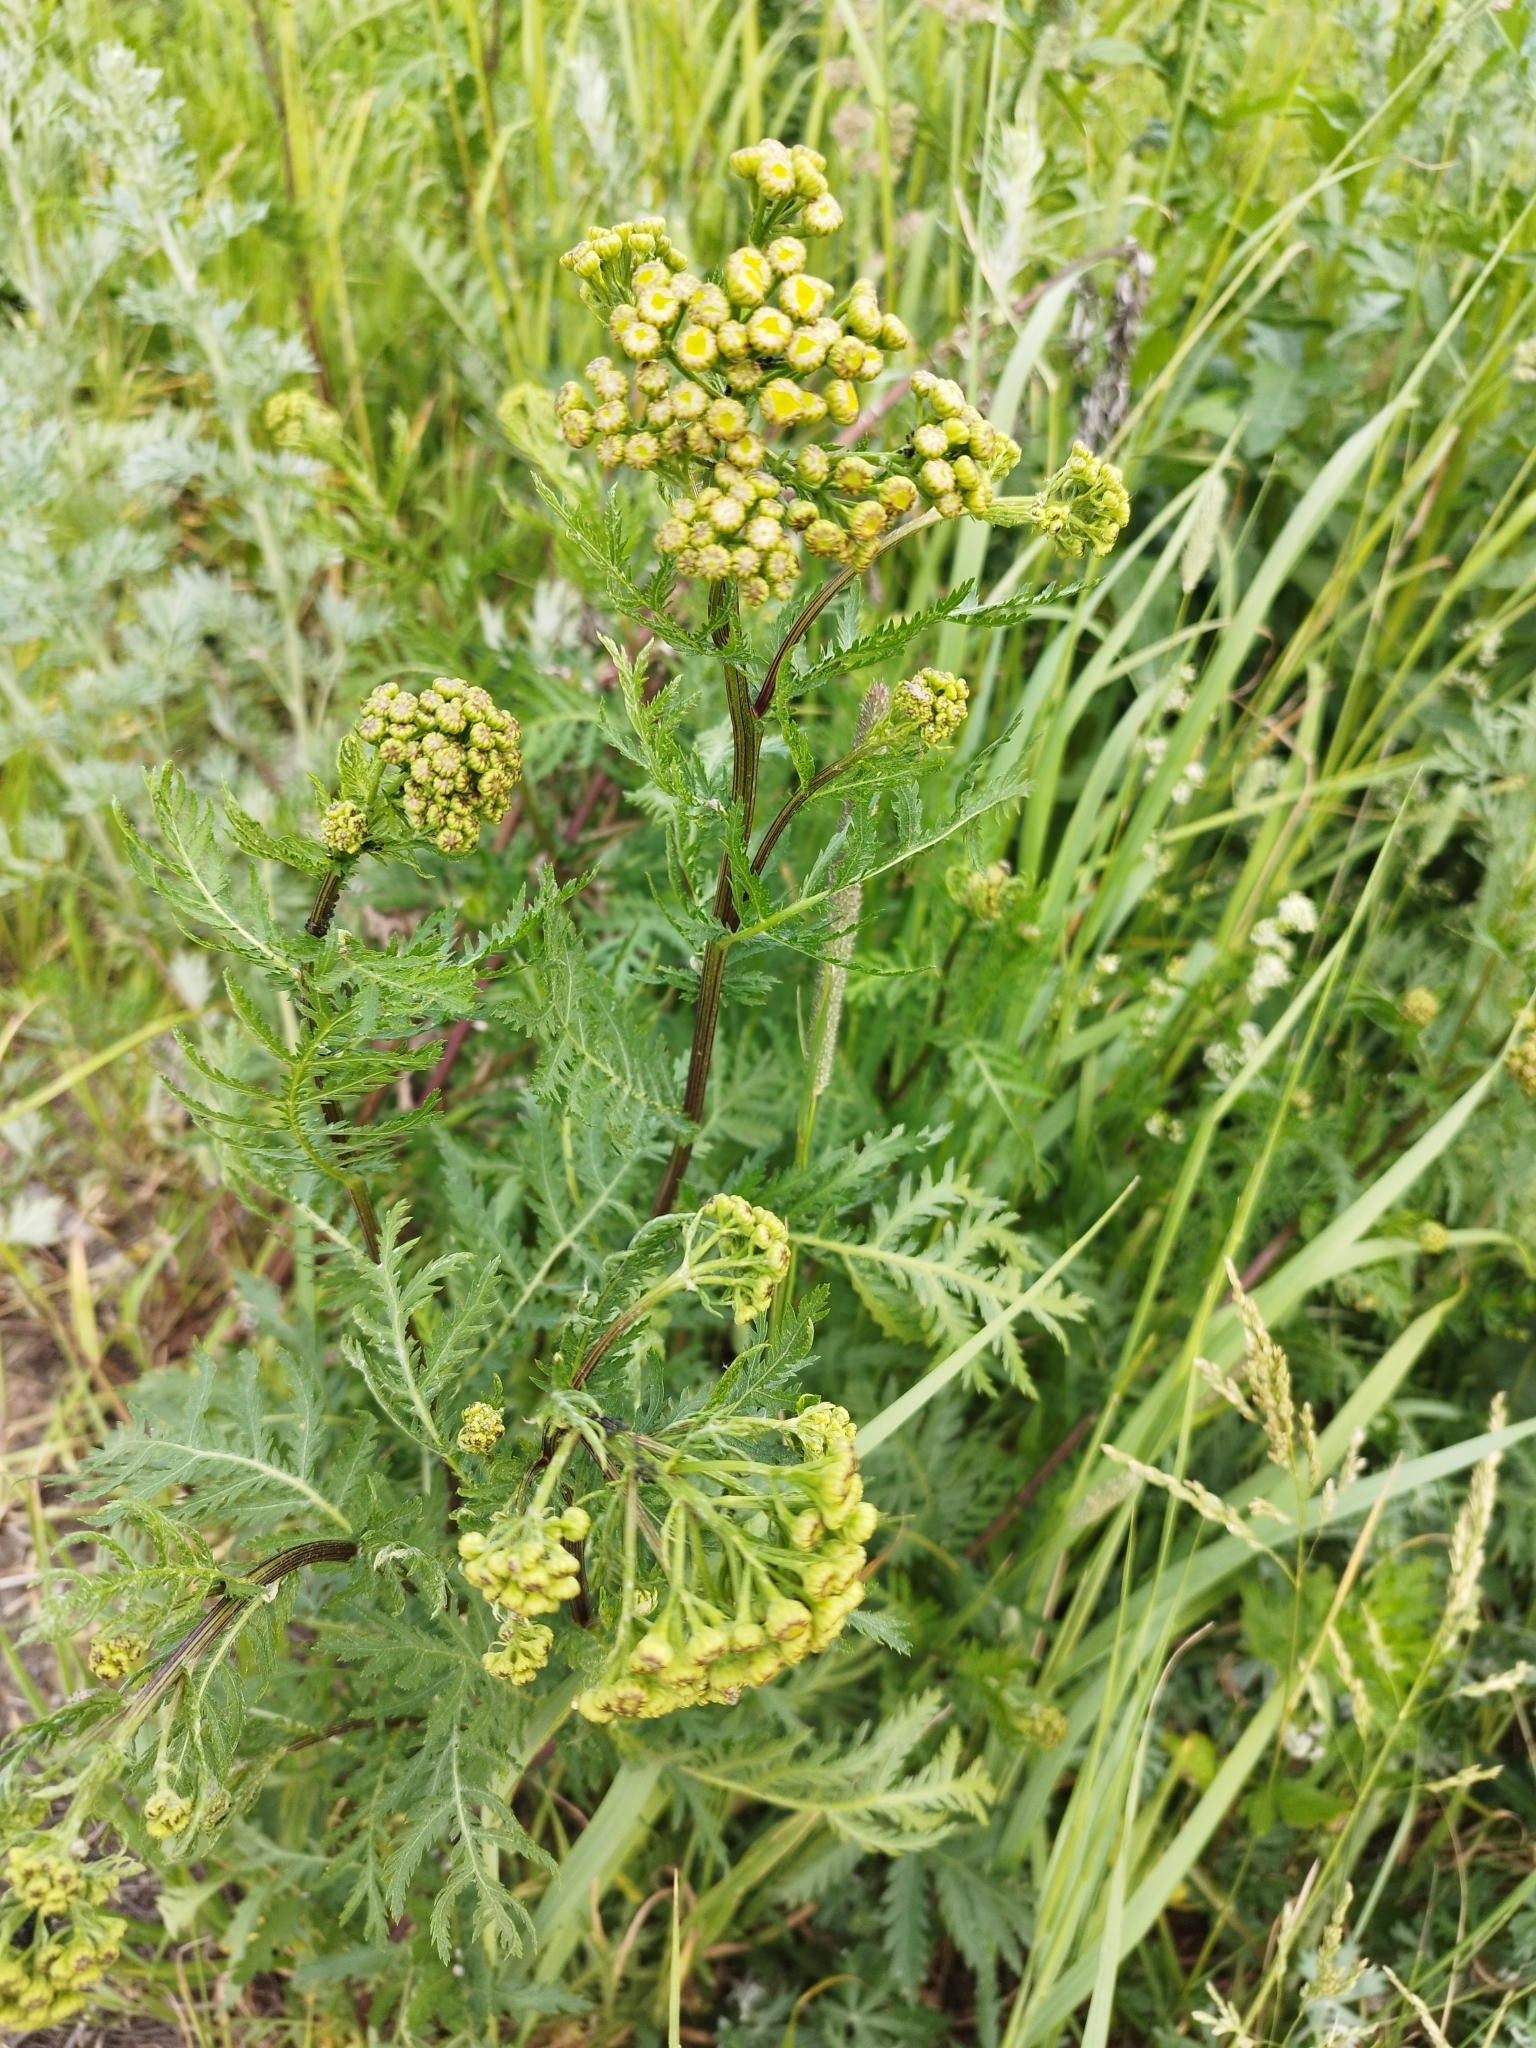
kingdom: Plantae
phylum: Tracheophyta
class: Magnoliopsida
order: Asterales
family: Asteraceae
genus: Tanacetum
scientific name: Tanacetum vulgare
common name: Common tansy
